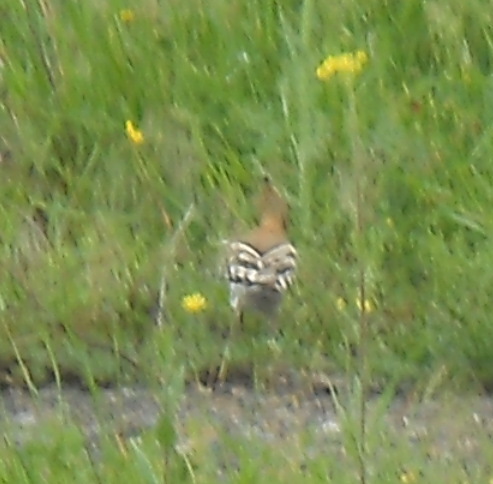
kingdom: Animalia
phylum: Chordata
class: Aves
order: Bucerotiformes
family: Upupidae
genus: Upupa
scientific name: Upupa epops
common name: Eurasian hoopoe
